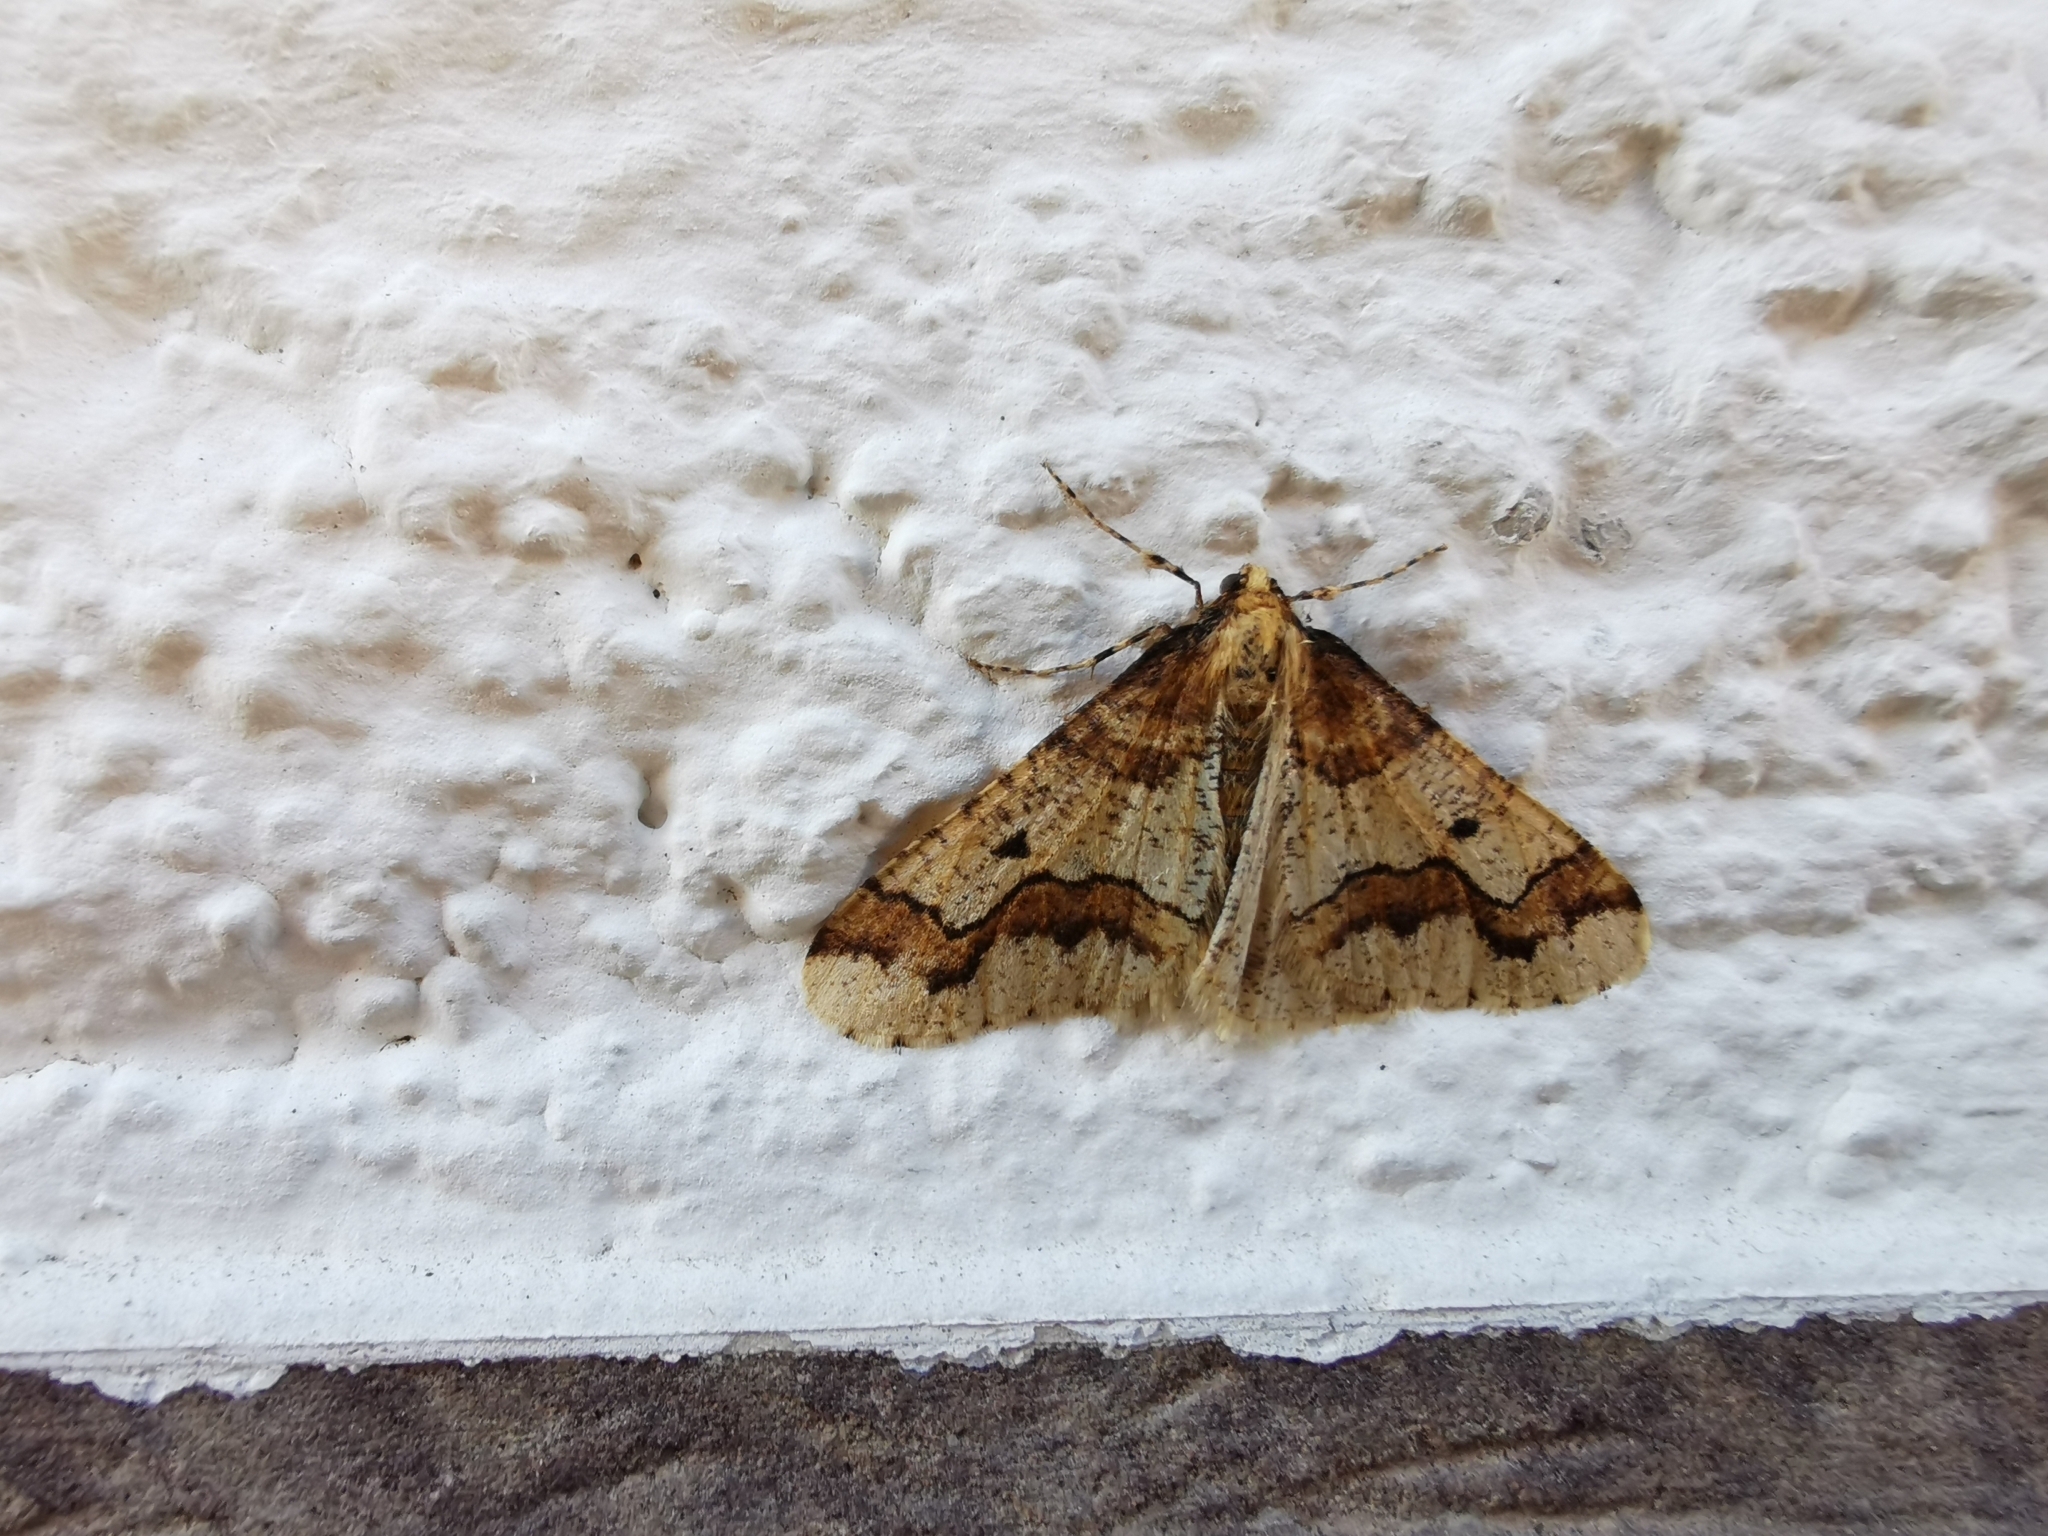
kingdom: Animalia
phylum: Arthropoda
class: Insecta
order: Lepidoptera
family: Geometridae
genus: Erannis
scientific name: Erannis defoliaria
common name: Mottled umber
